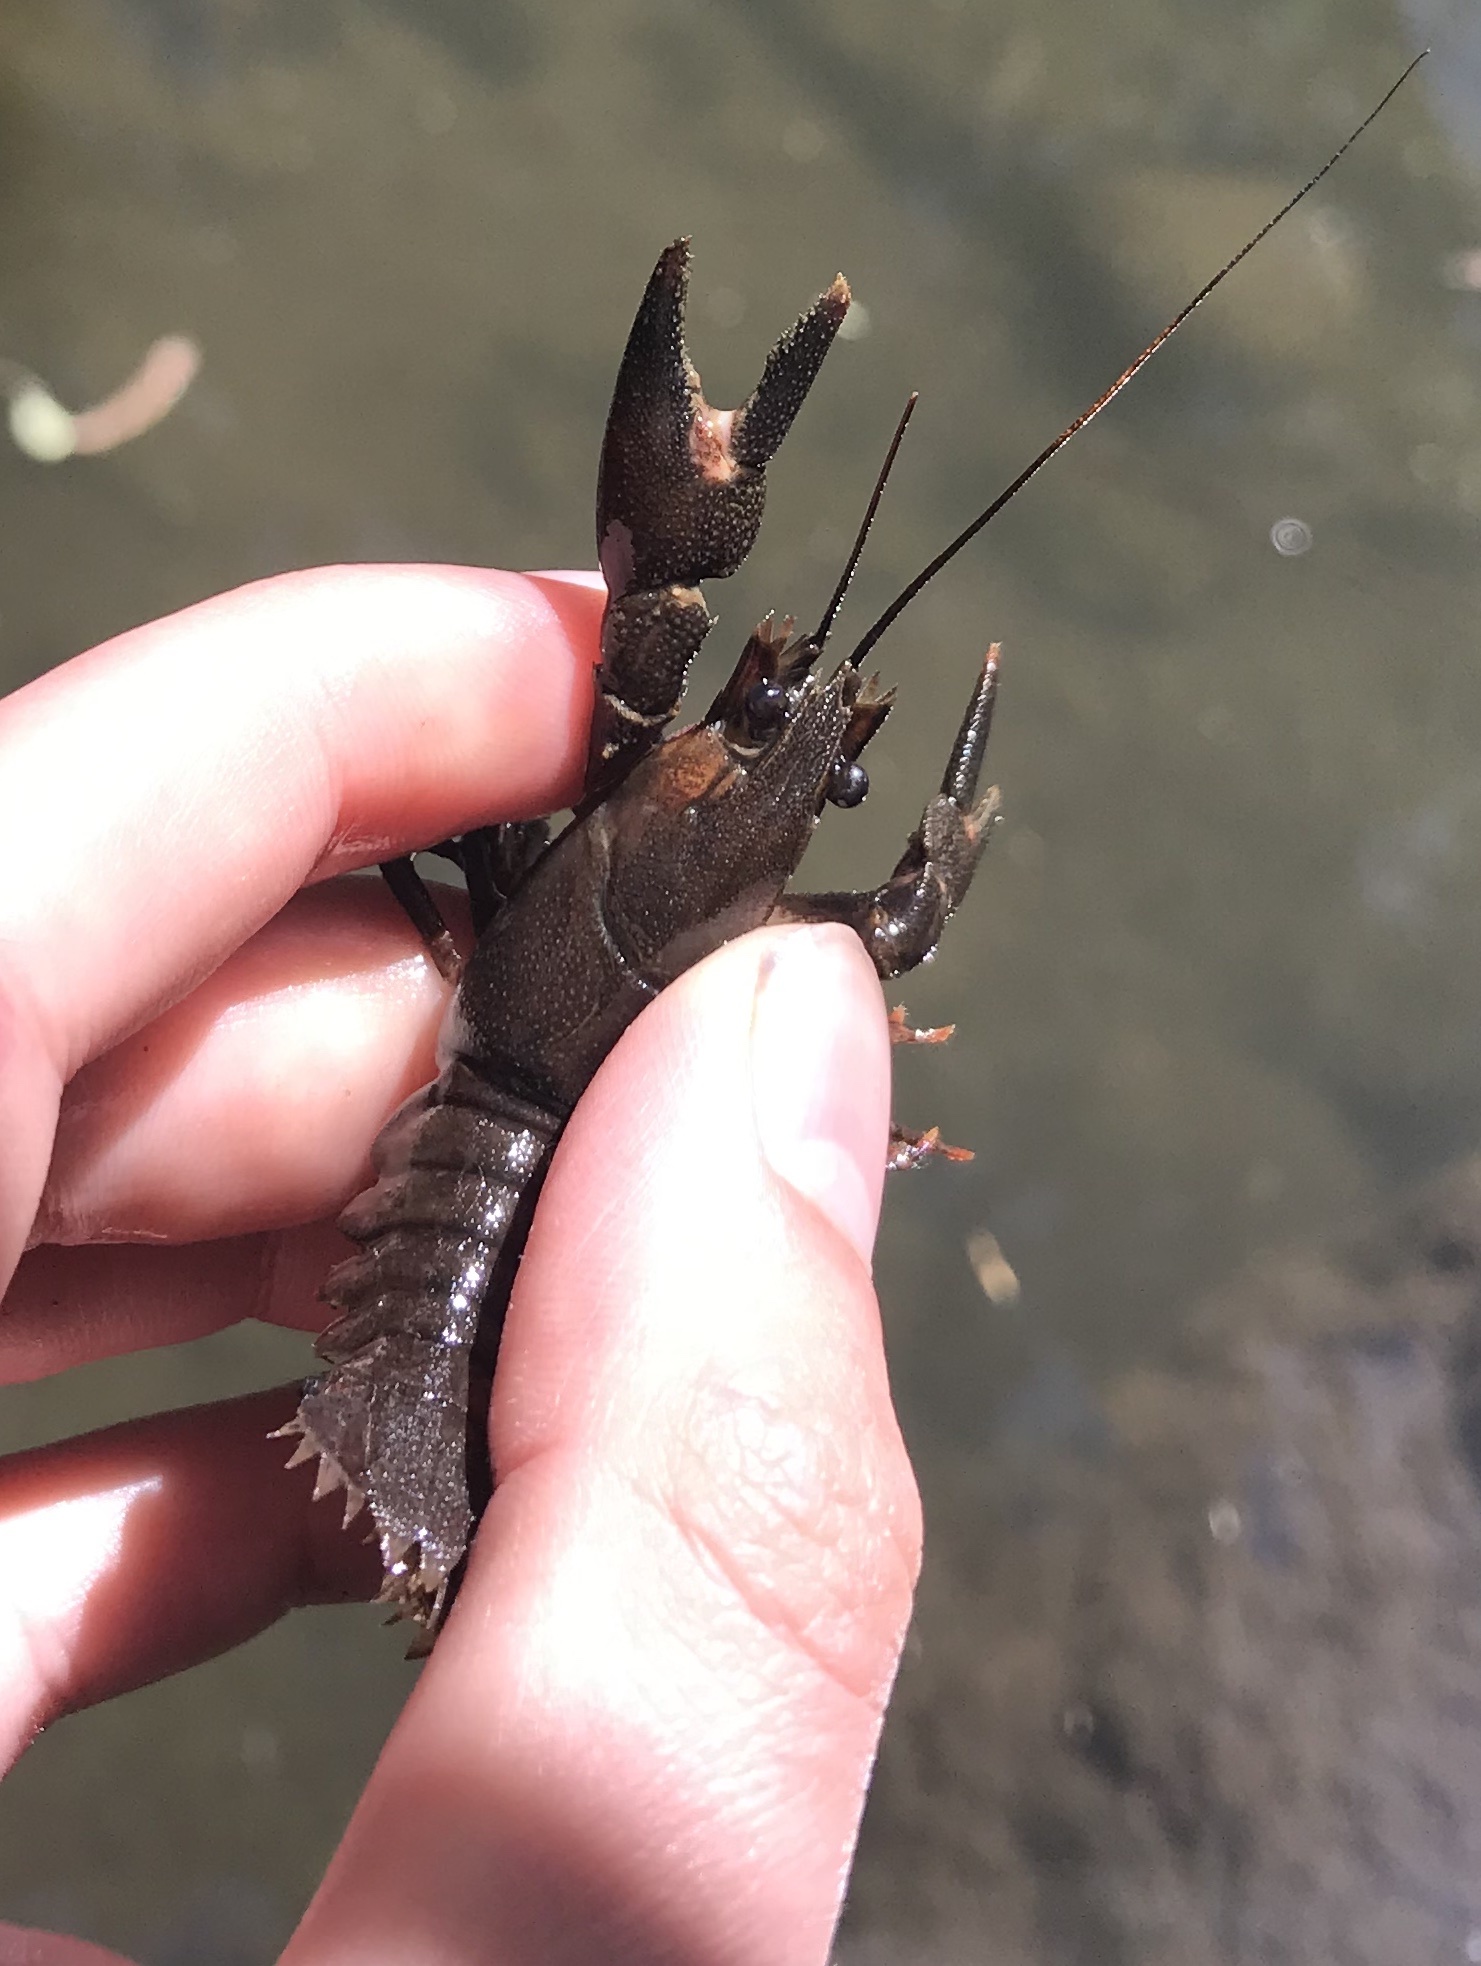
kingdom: Animalia
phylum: Arthropoda
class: Malacostraca
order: Decapoda
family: Astacidae
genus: Pacifastacus
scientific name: Pacifastacus leniusculus
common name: Signal crayfish
